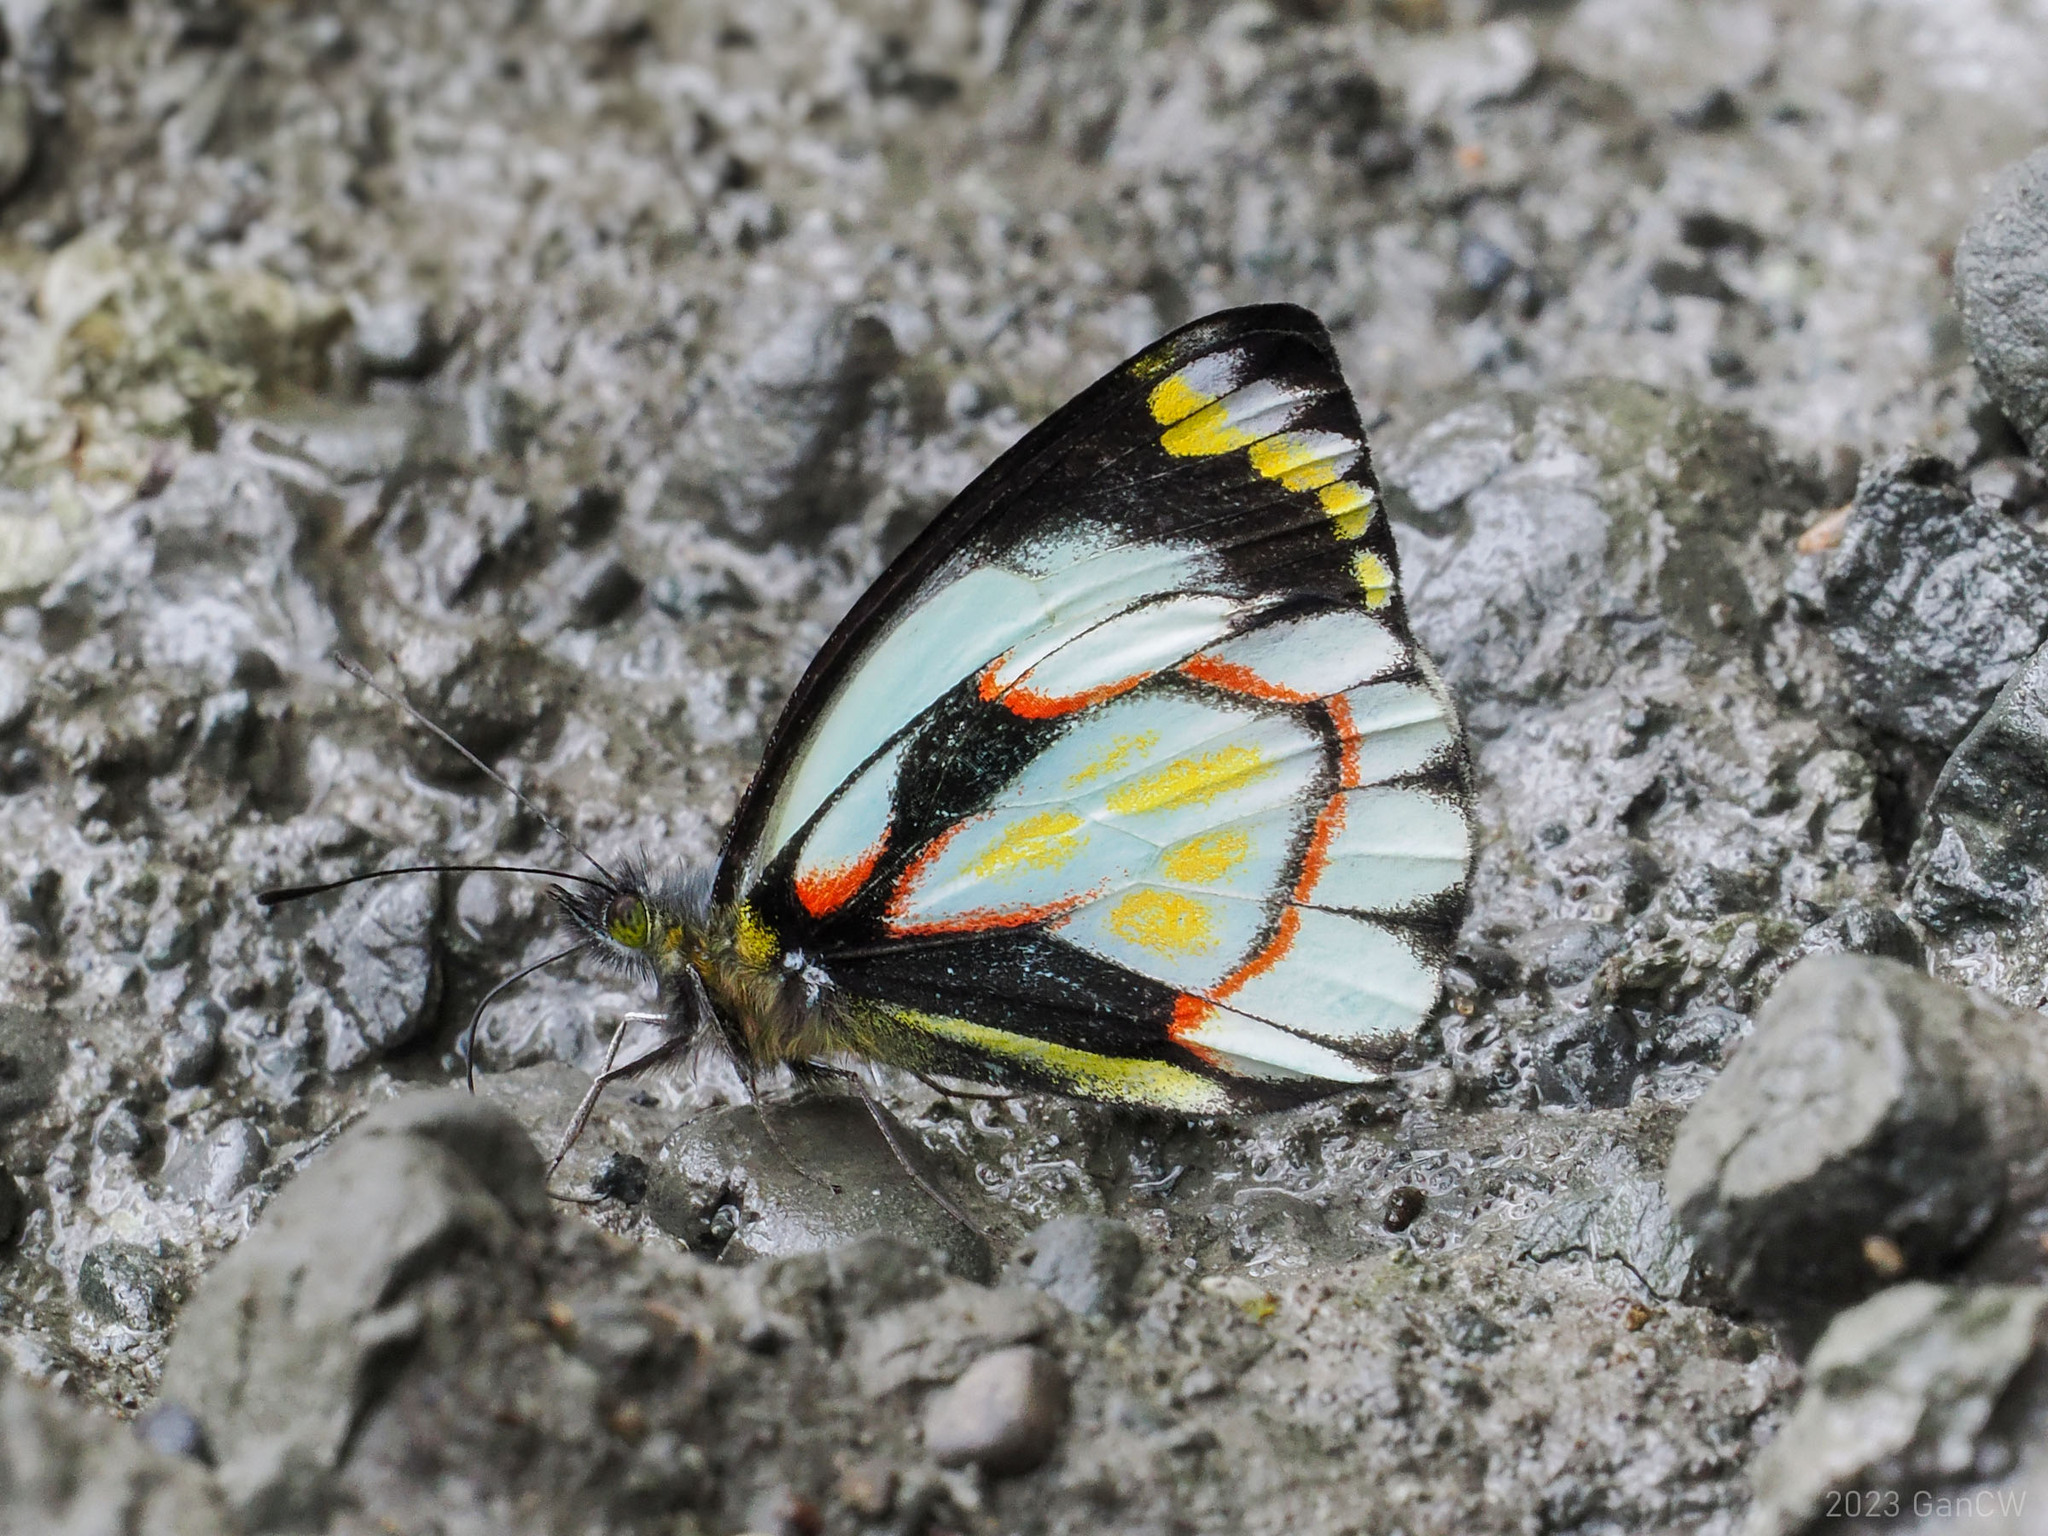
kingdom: Animalia
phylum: Arthropoda
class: Insecta
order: Lepidoptera
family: Pieridae
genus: Delias
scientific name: Delias flavistriga
